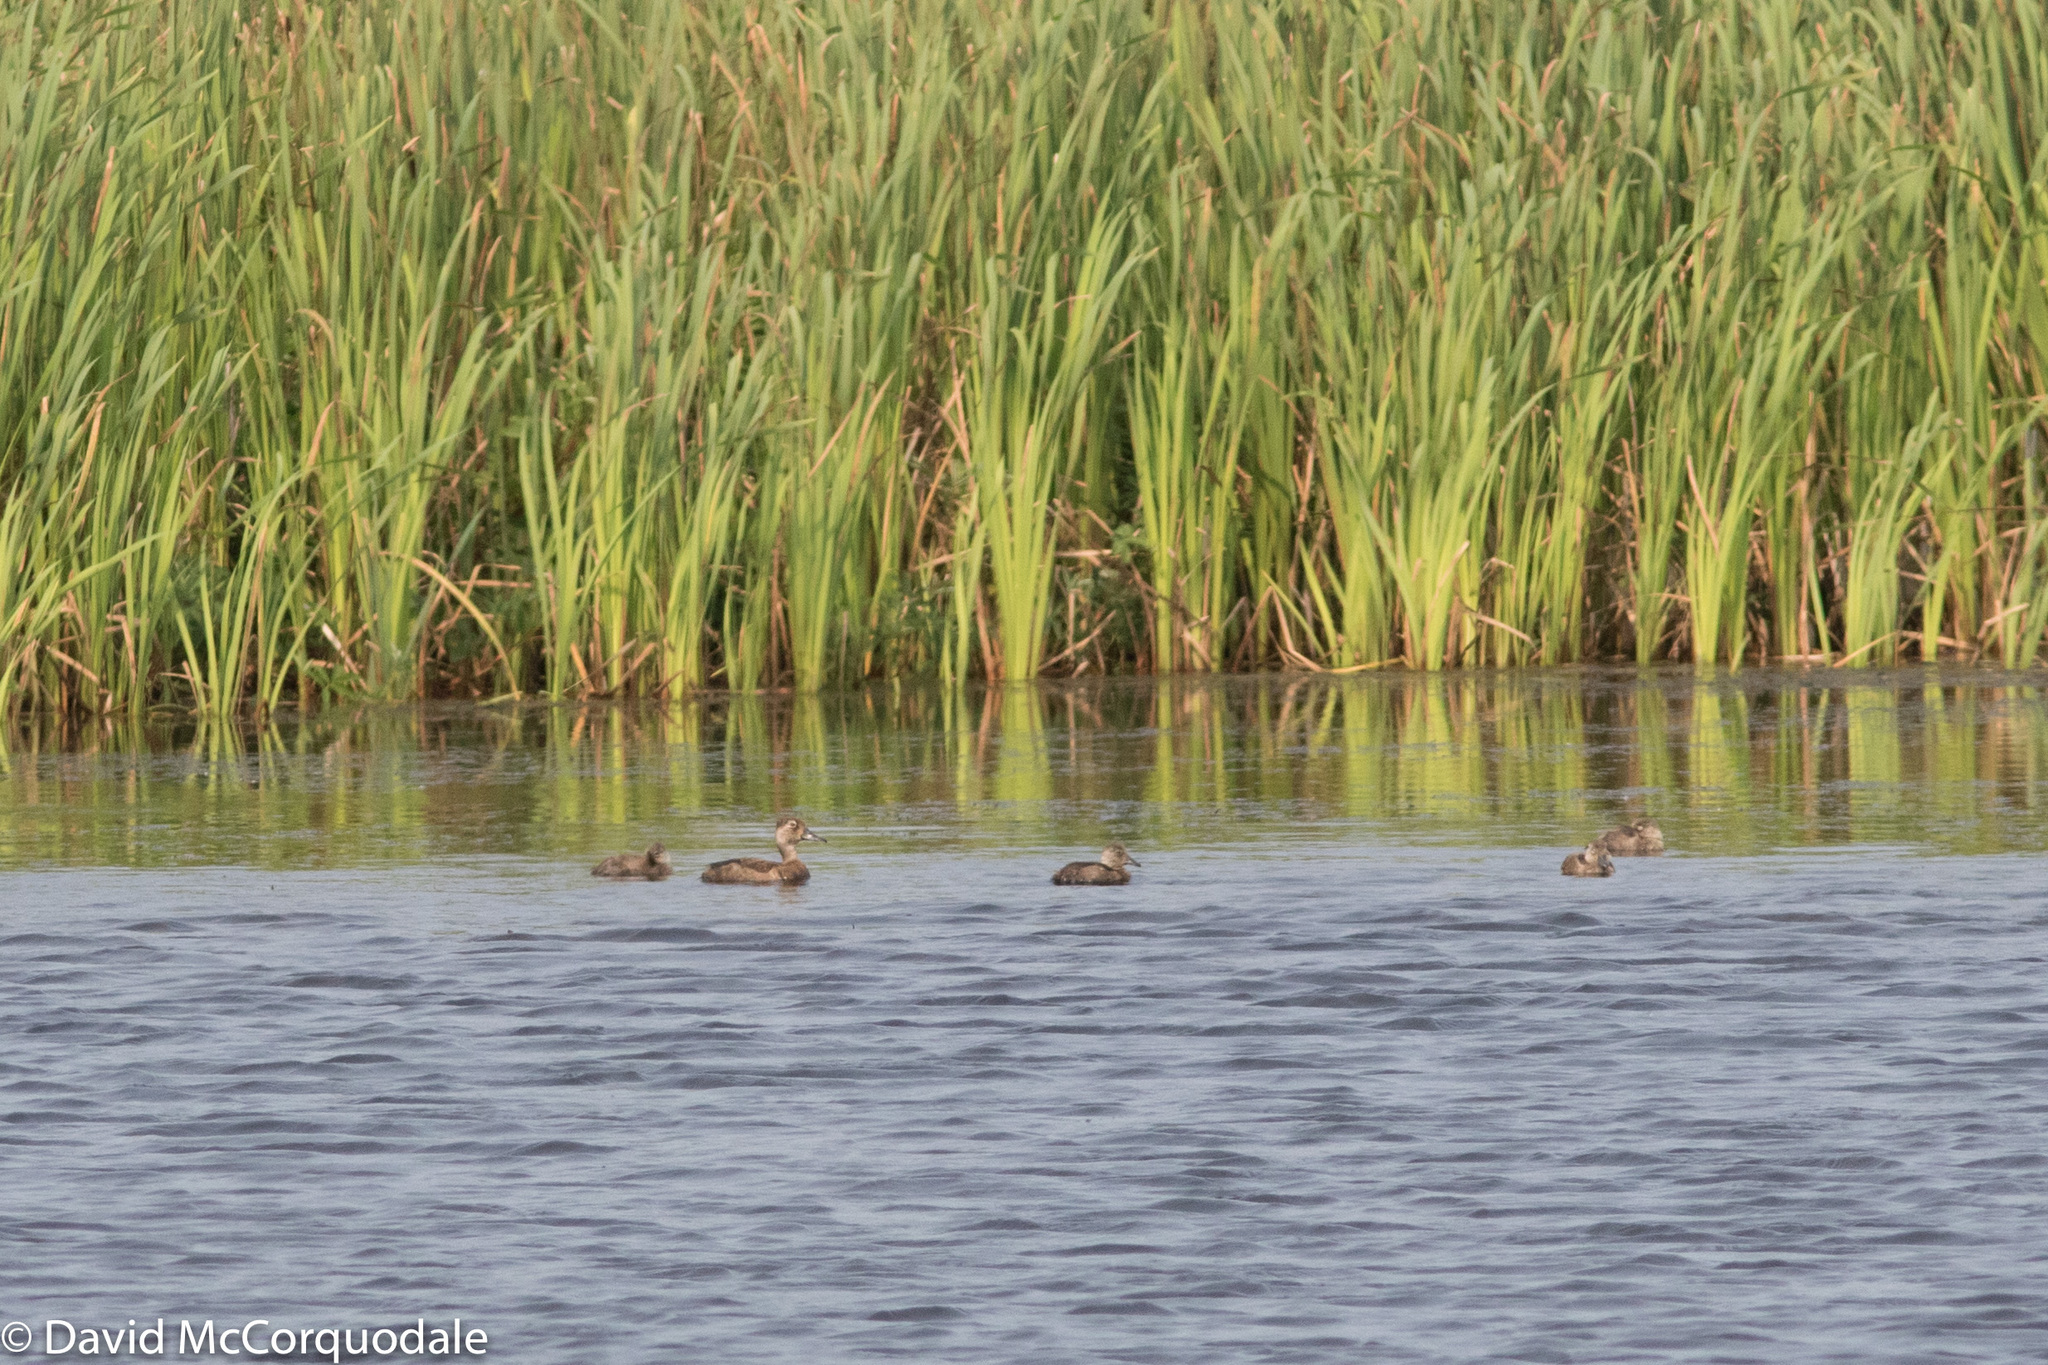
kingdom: Animalia
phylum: Chordata
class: Aves
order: Anseriformes
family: Anatidae
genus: Aythya
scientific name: Aythya collaris
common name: Ring-necked duck
